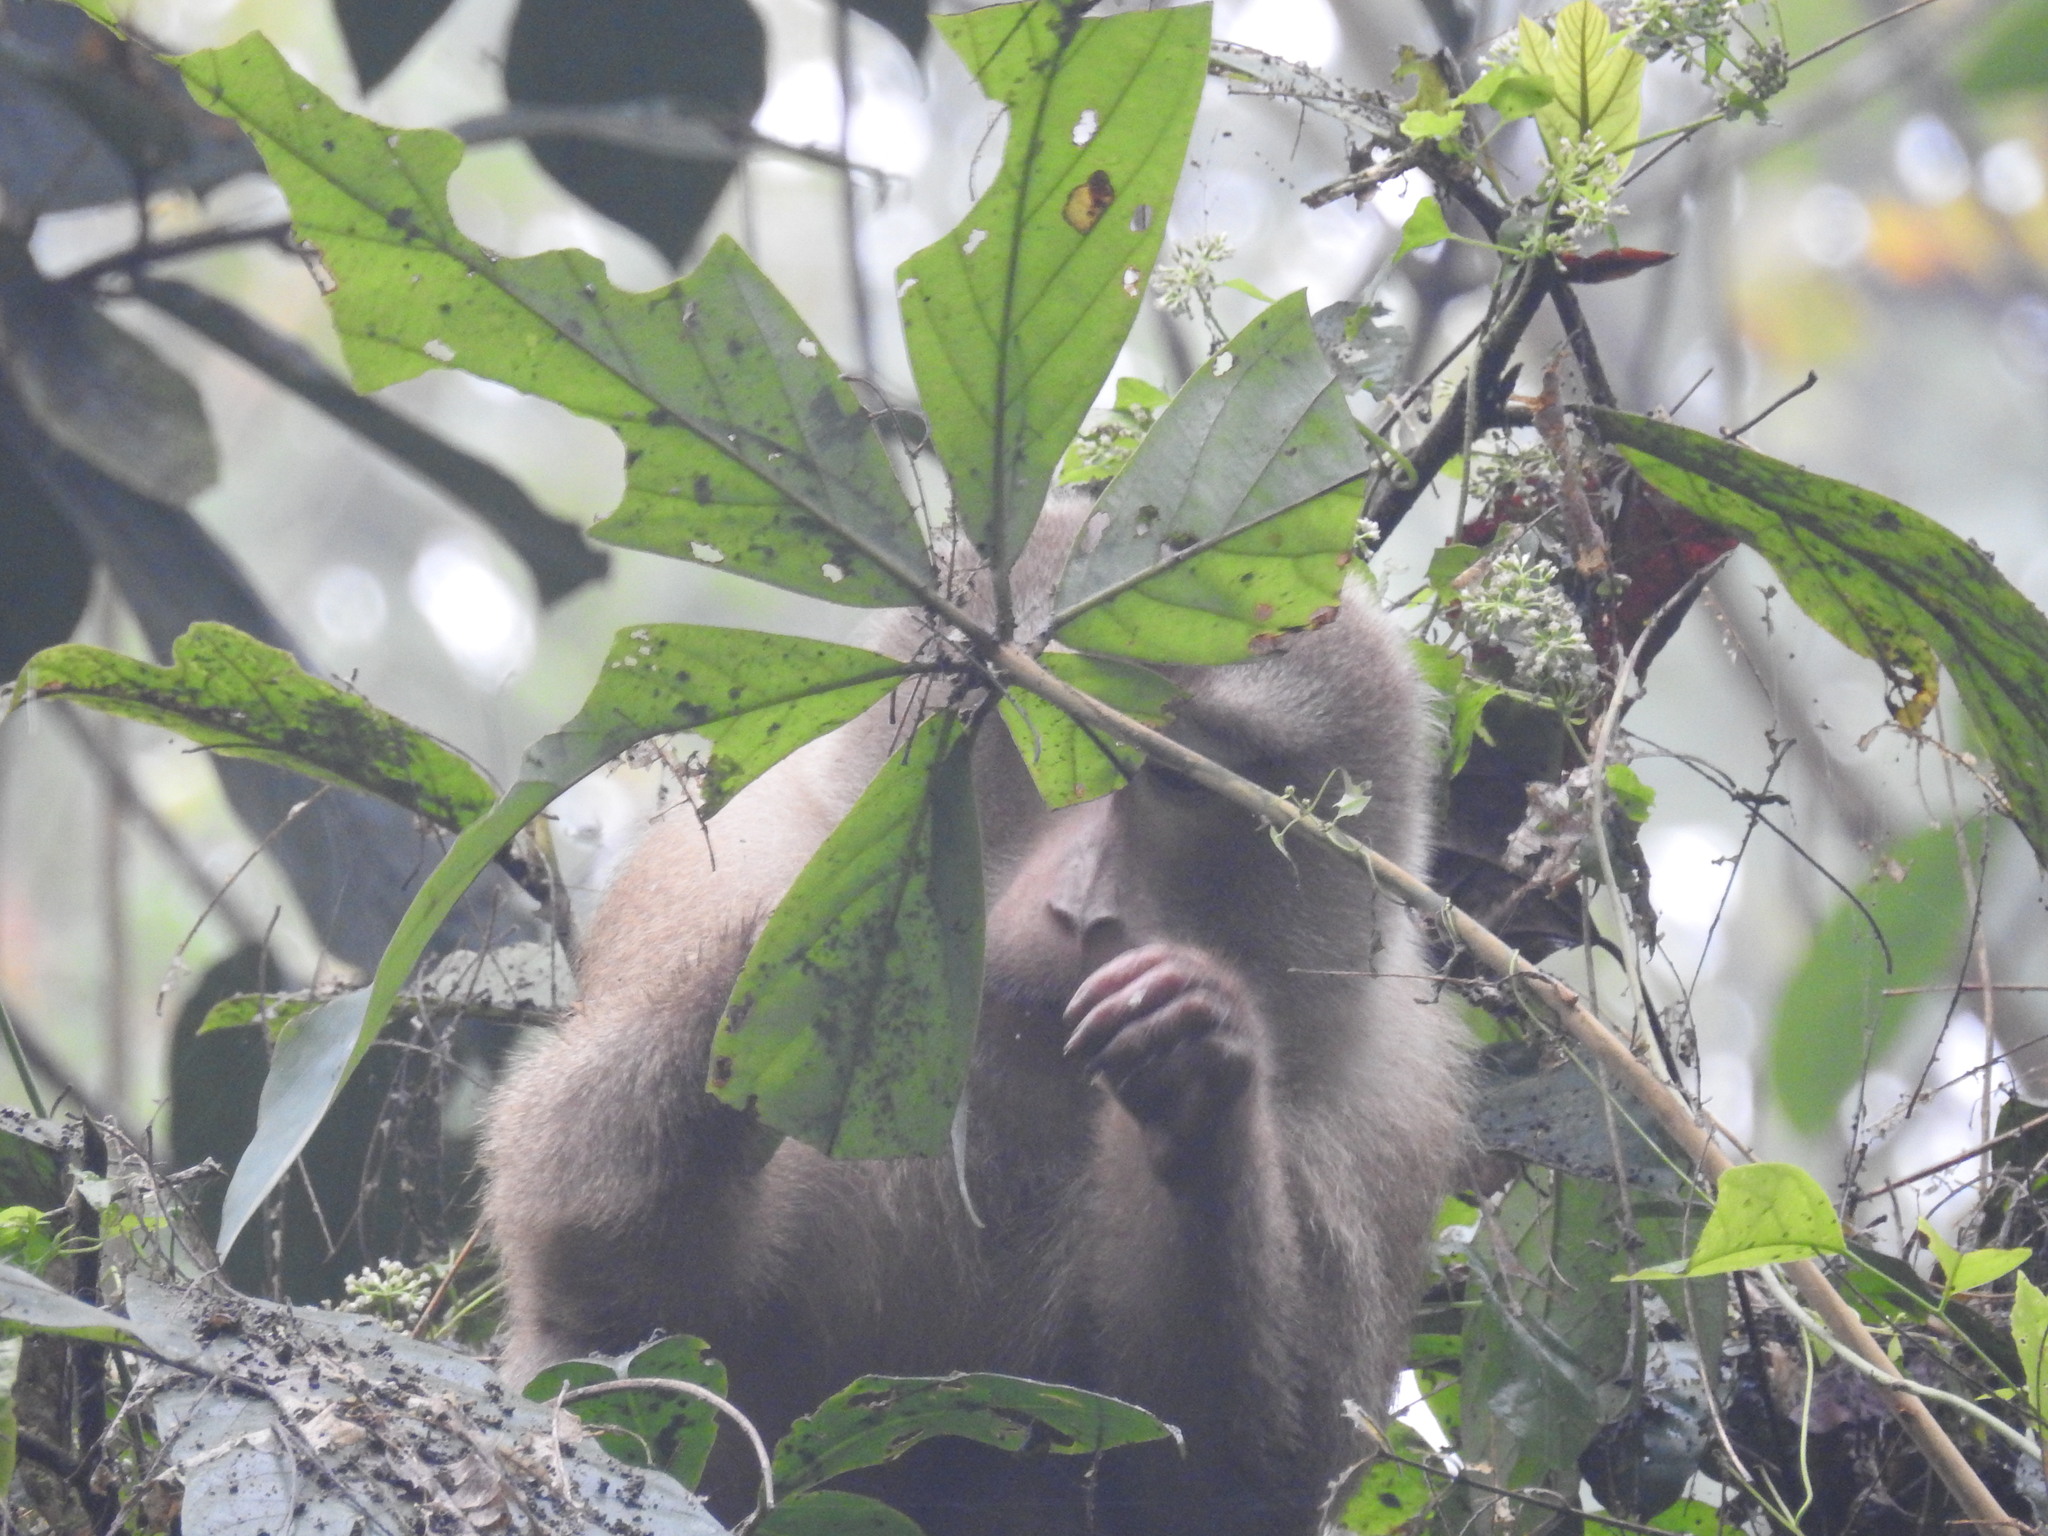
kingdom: Animalia
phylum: Chordata
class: Mammalia
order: Primates
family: Cercopithecidae
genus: Macaca
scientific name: Macaca leonina
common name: Northern pig-tailed macaque
